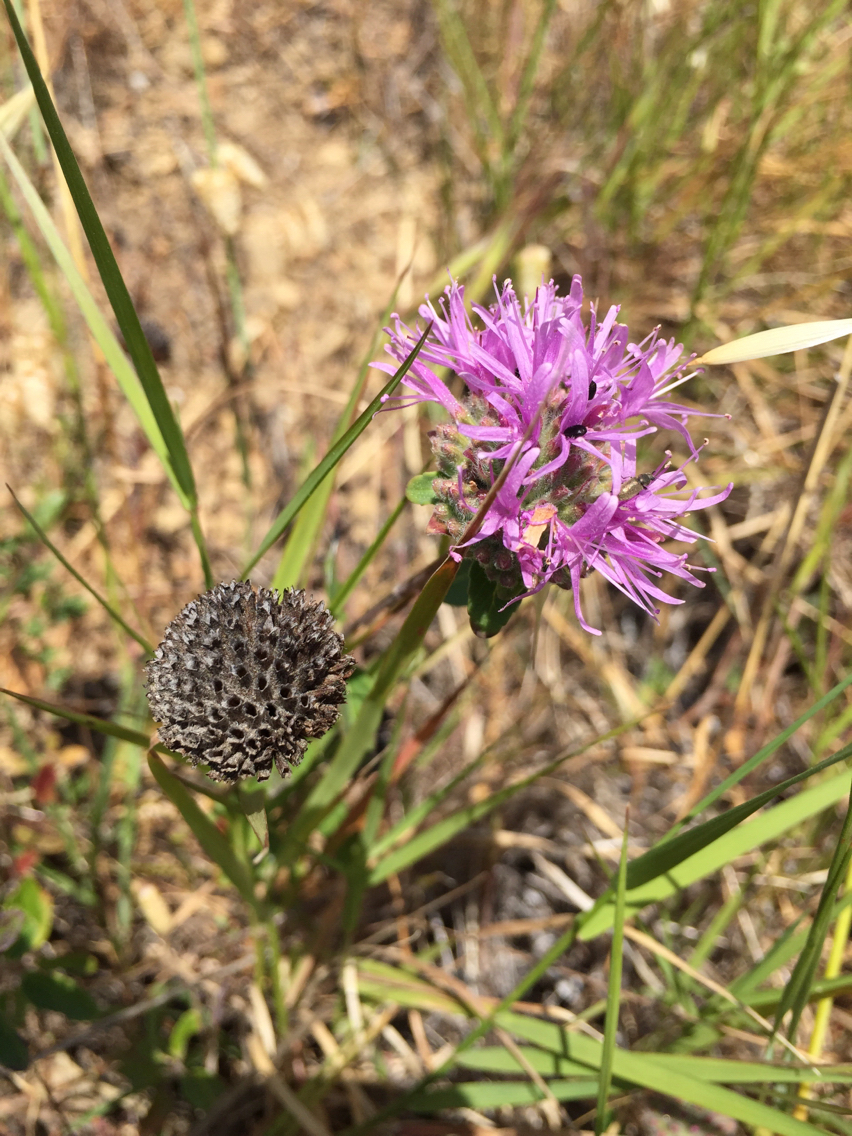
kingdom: Plantae
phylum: Tracheophyta
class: Magnoliopsida
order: Lamiales
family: Lamiaceae
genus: Monardella
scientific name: Monardella odoratissima
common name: Pacific monardella
